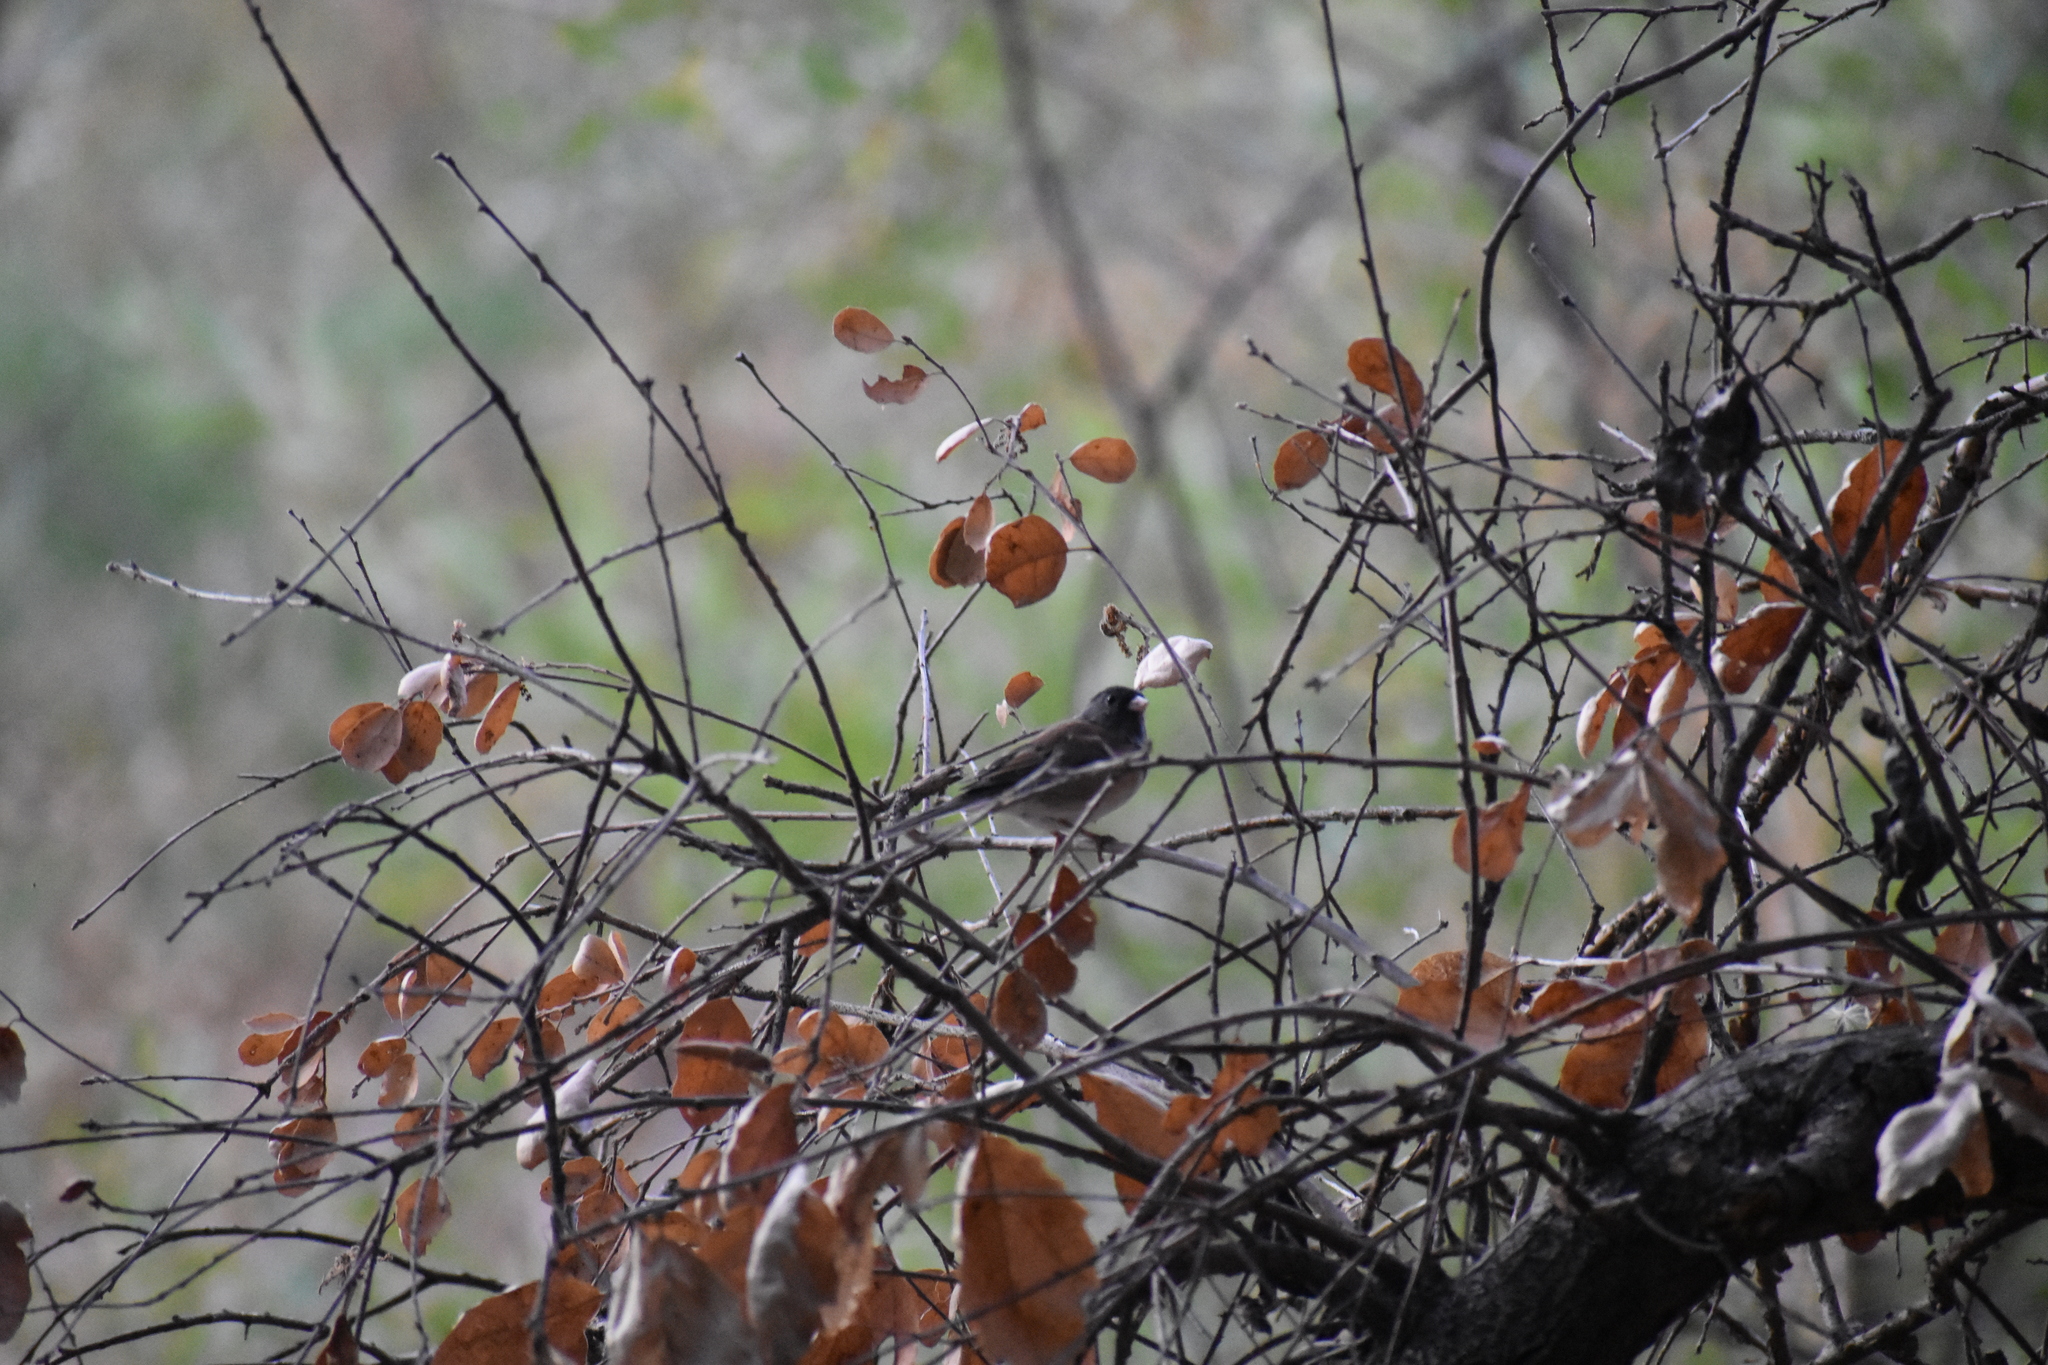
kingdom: Animalia
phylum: Chordata
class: Aves
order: Passeriformes
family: Passerellidae
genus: Junco
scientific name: Junco hyemalis
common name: Dark-eyed junco
